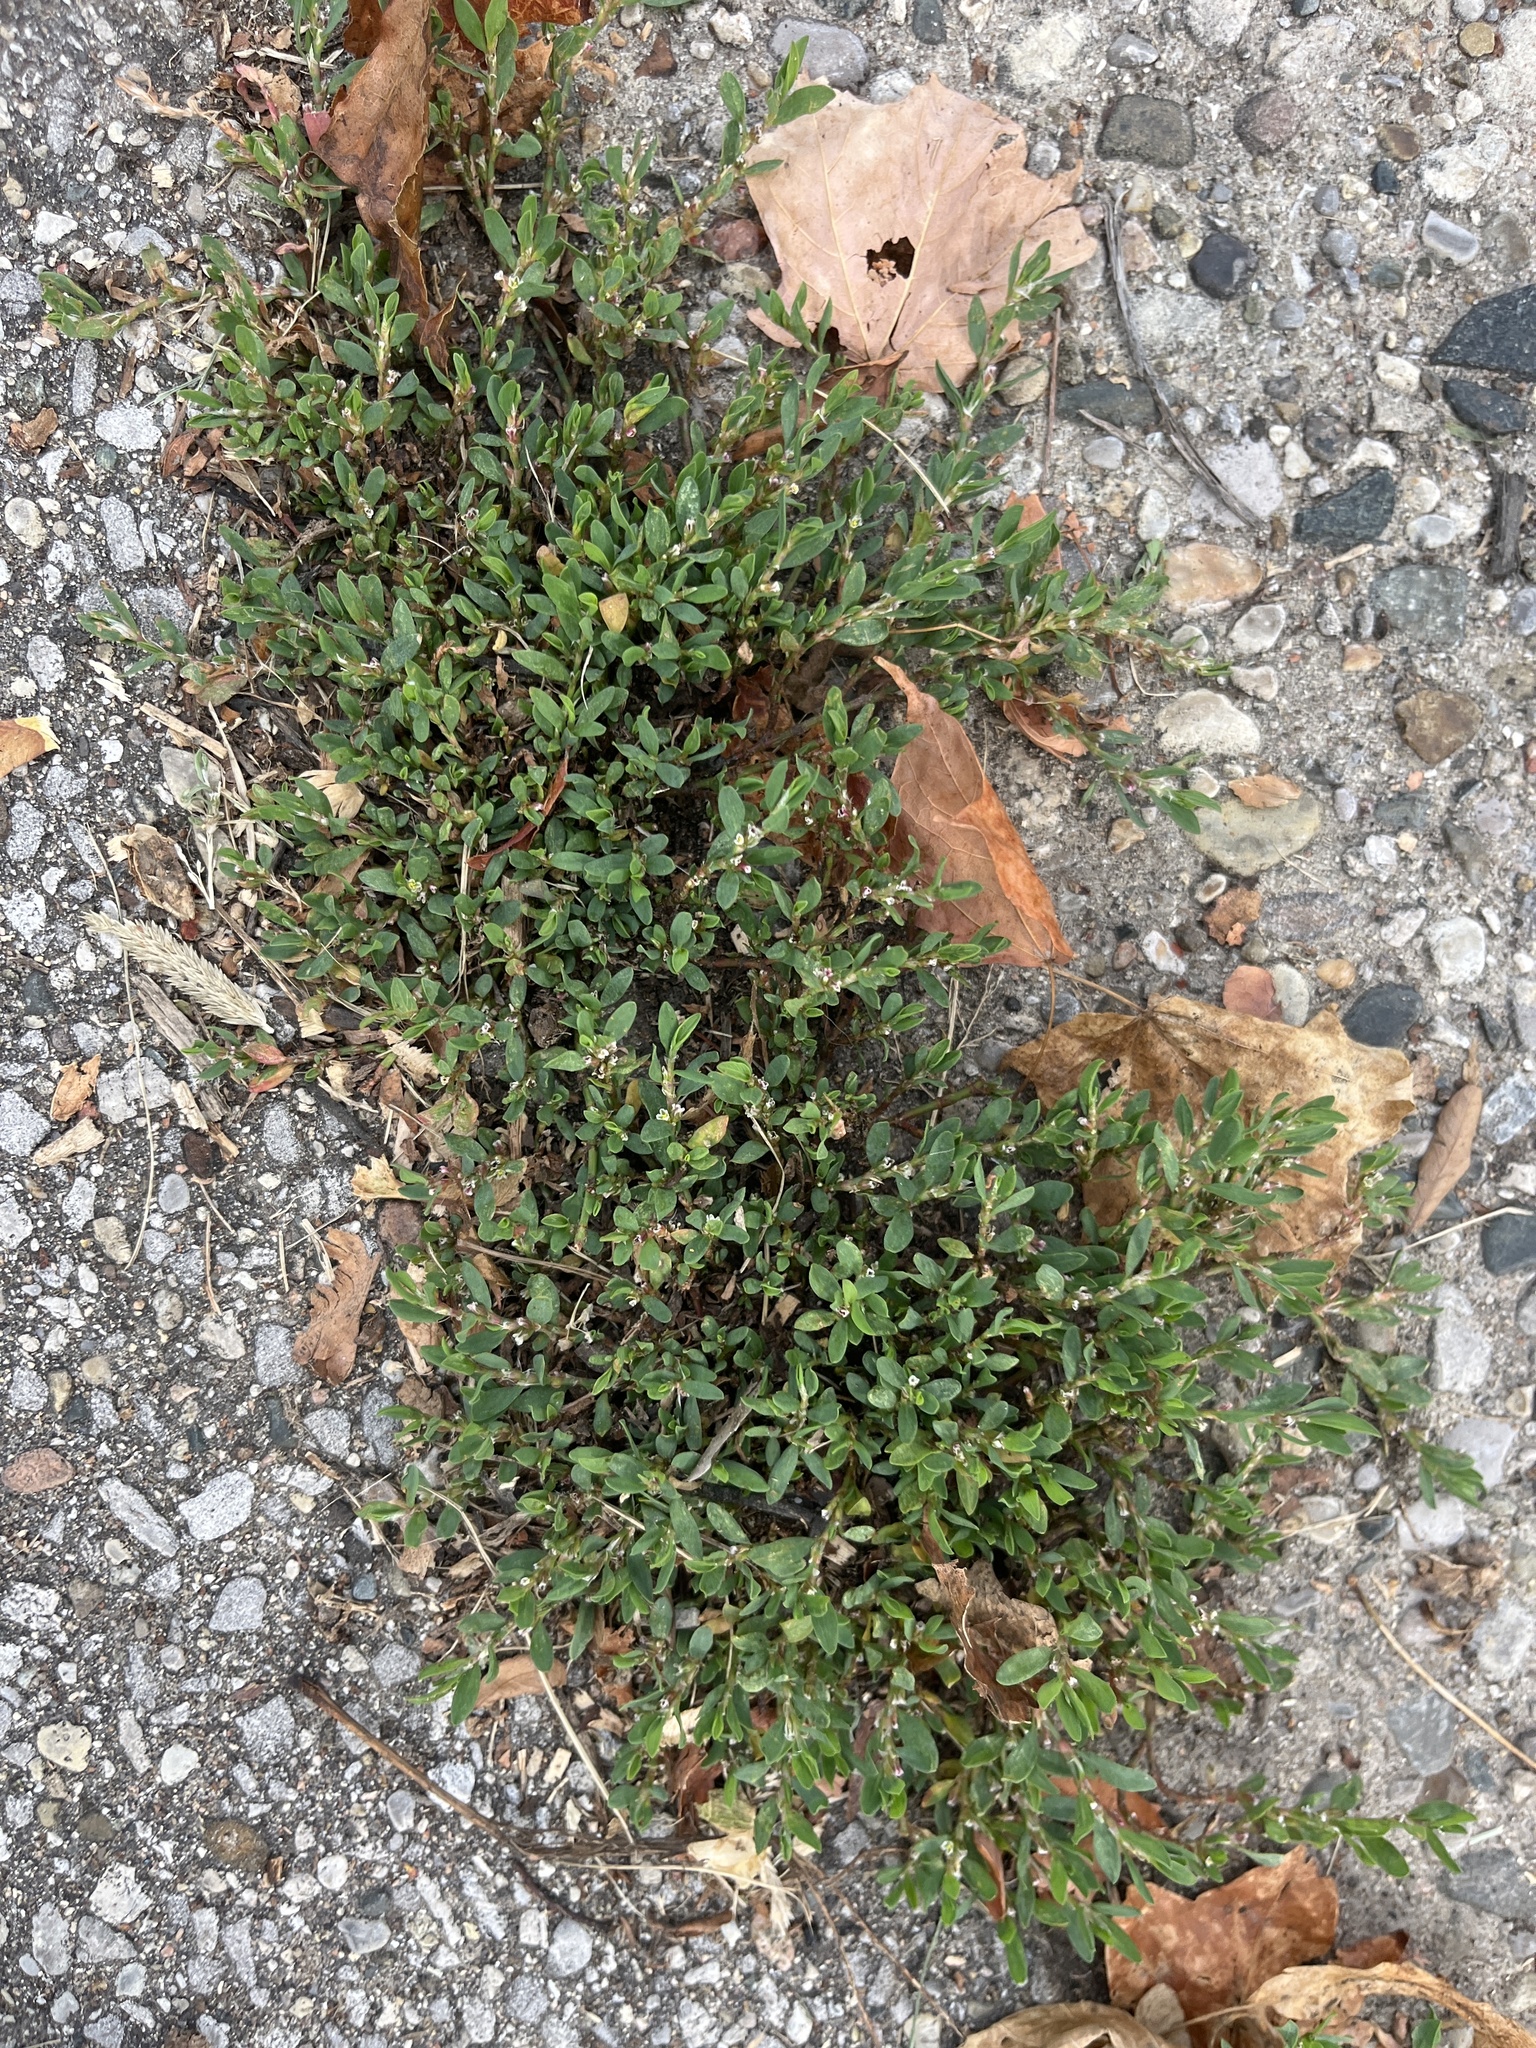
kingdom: Plantae
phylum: Tracheophyta
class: Magnoliopsida
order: Caryophyllales
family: Polygonaceae
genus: Polygonum
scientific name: Polygonum aviculare
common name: Prostrate knotweed
